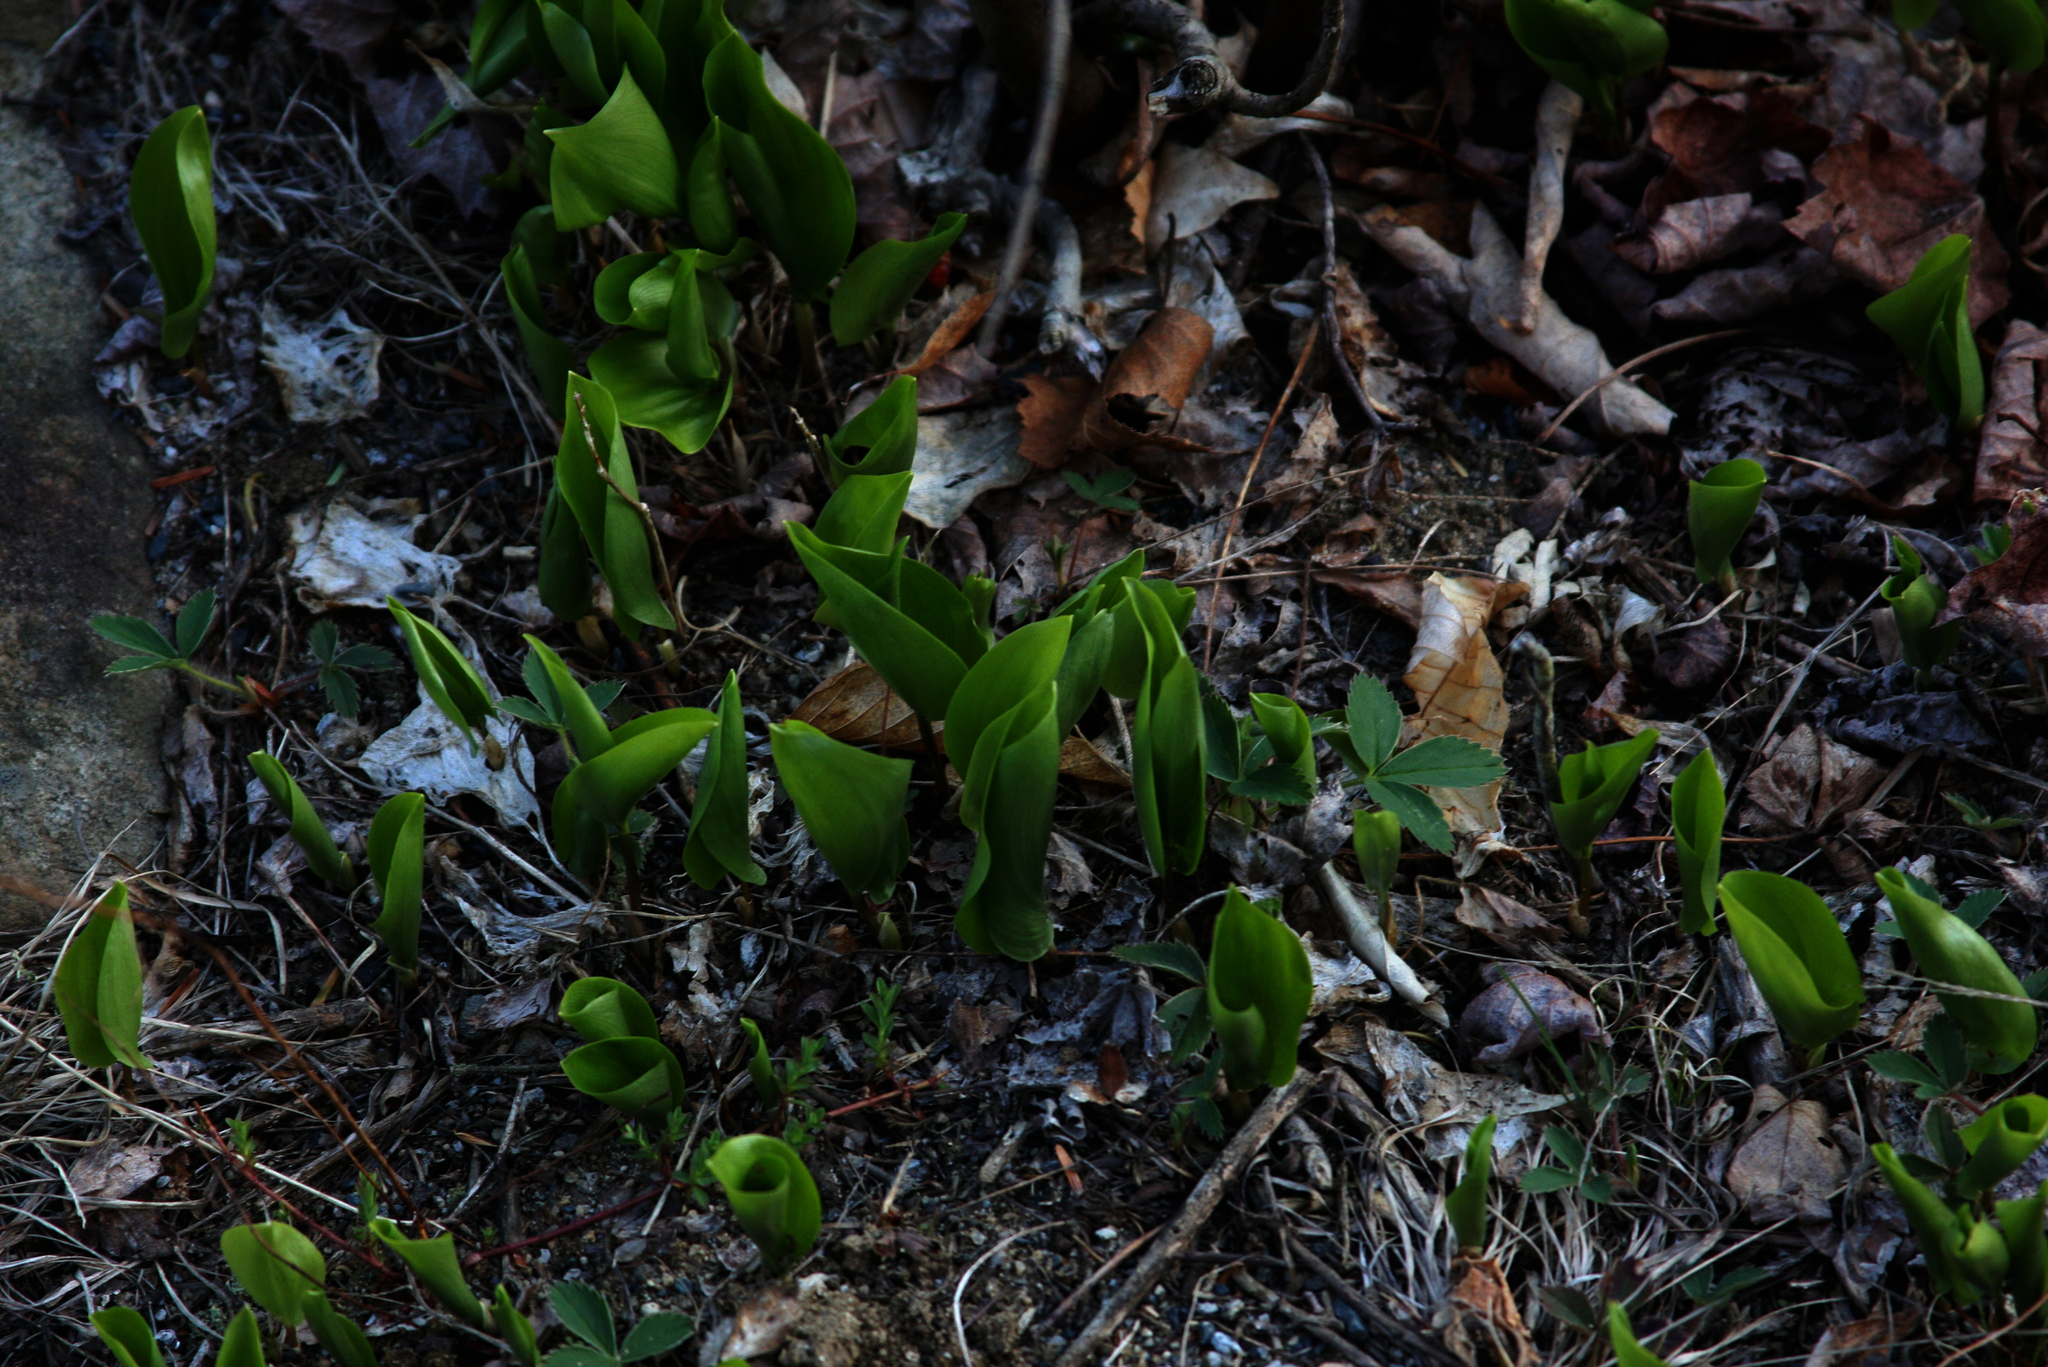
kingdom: Plantae
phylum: Tracheophyta
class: Liliopsida
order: Asparagales
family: Asparagaceae
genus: Maianthemum
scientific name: Maianthemum canadense
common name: False lily-of-the-valley
